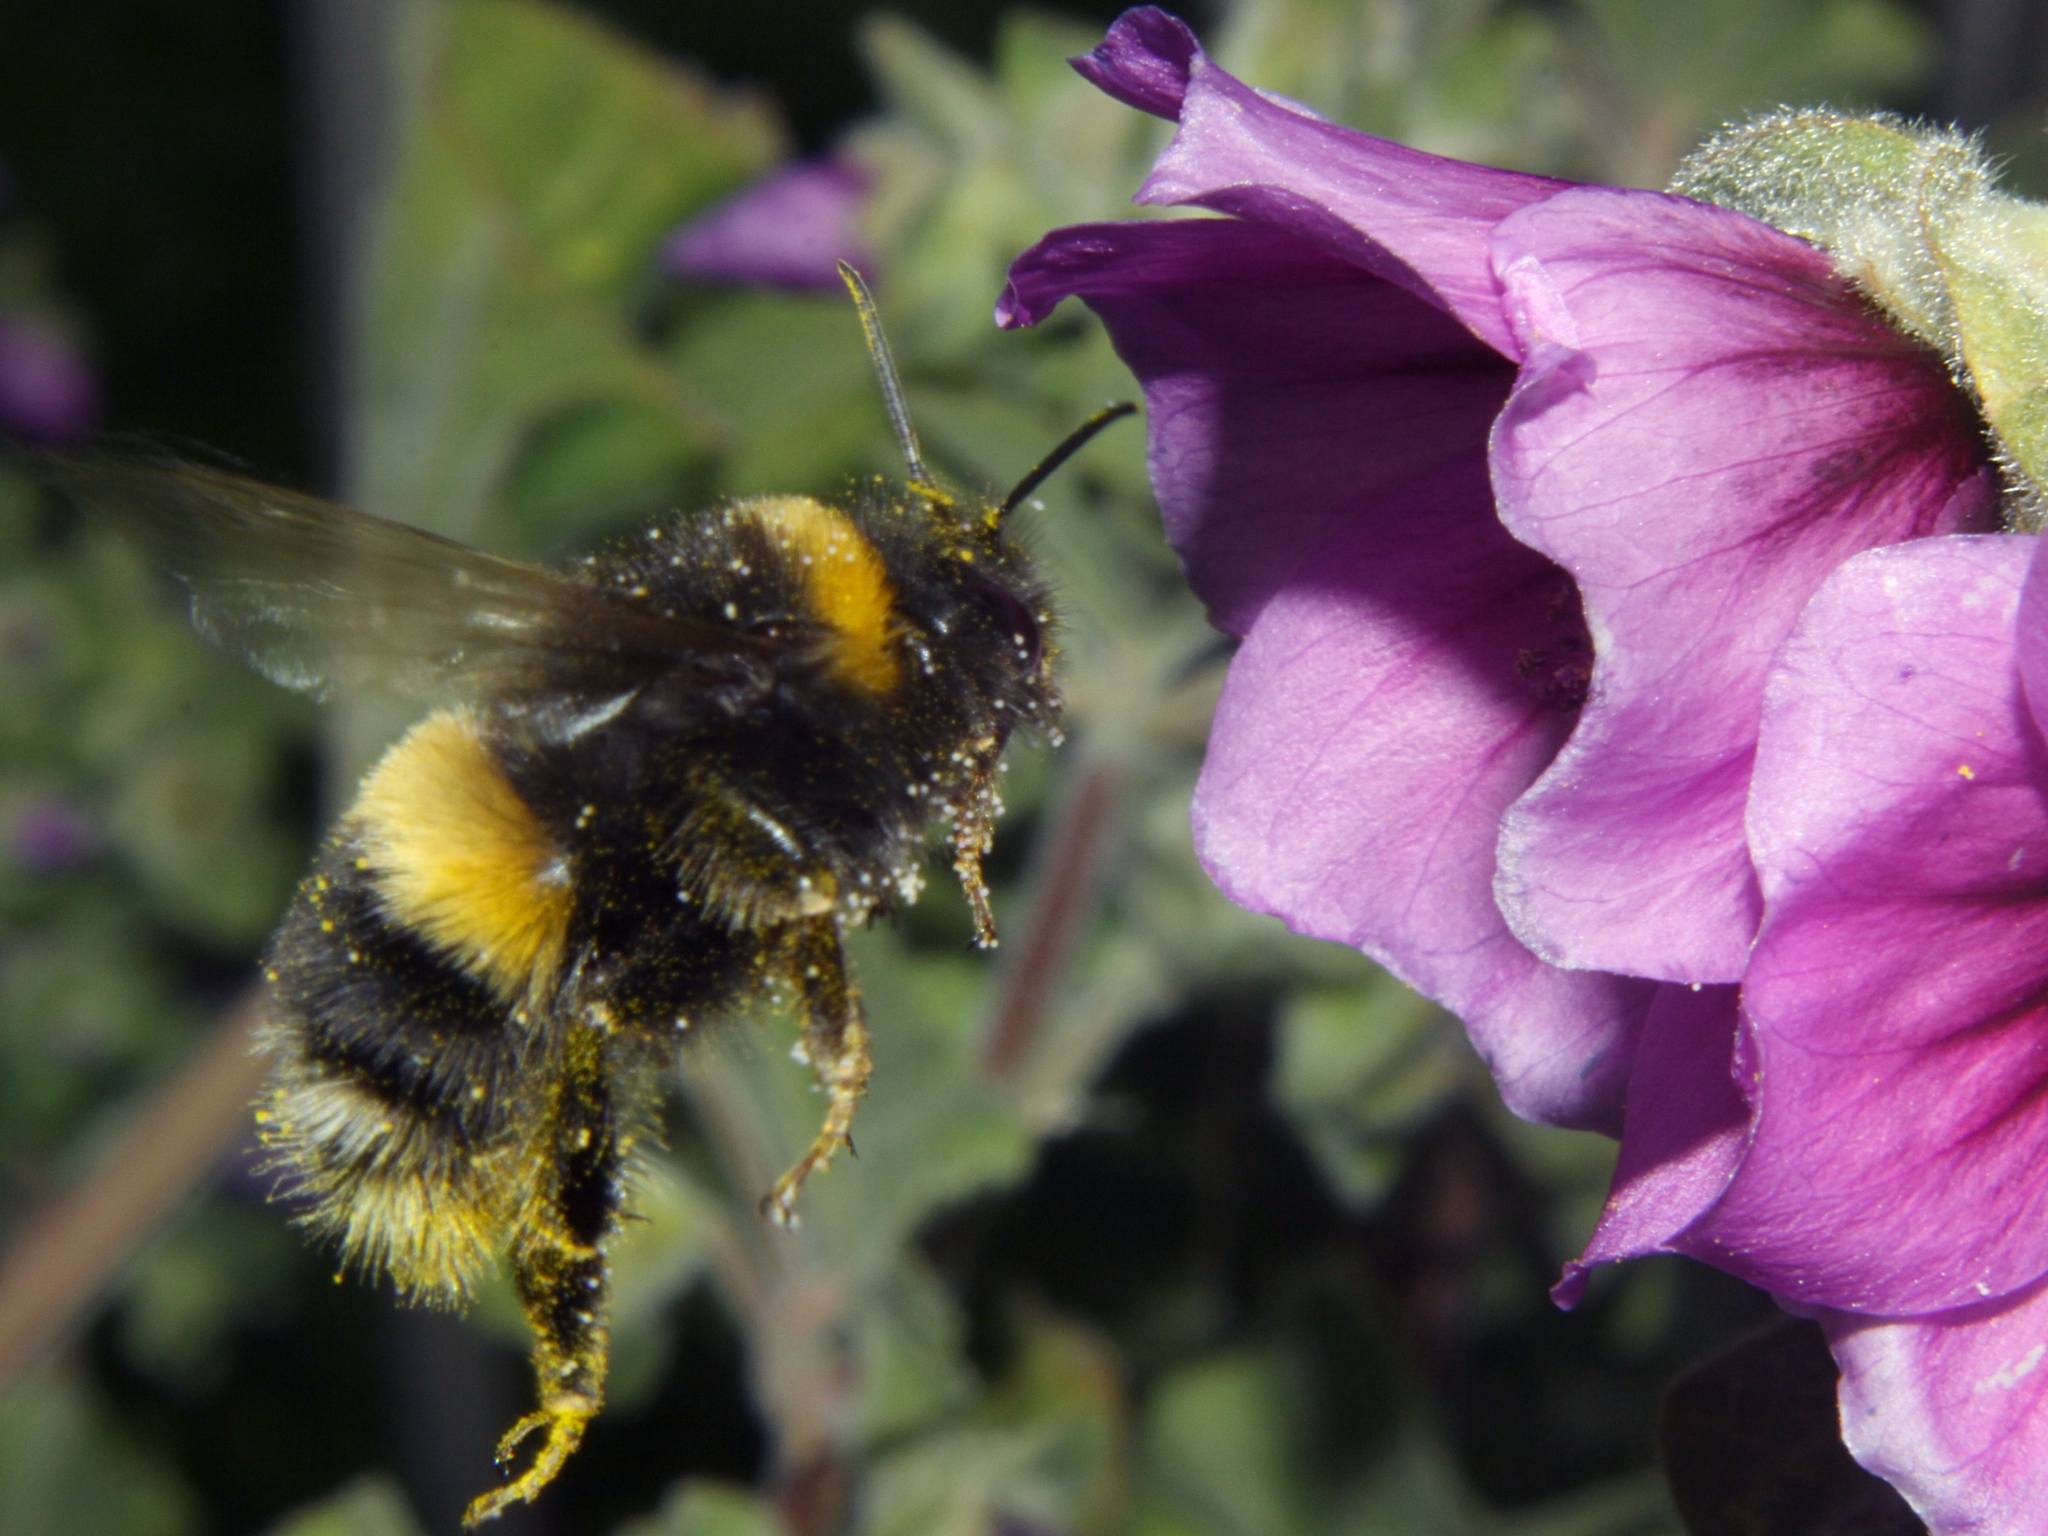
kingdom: Animalia
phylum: Arthropoda
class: Insecta
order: Hymenoptera
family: Apidae
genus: Bombus
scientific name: Bombus terrestris
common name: Buff-tailed bumblebee
